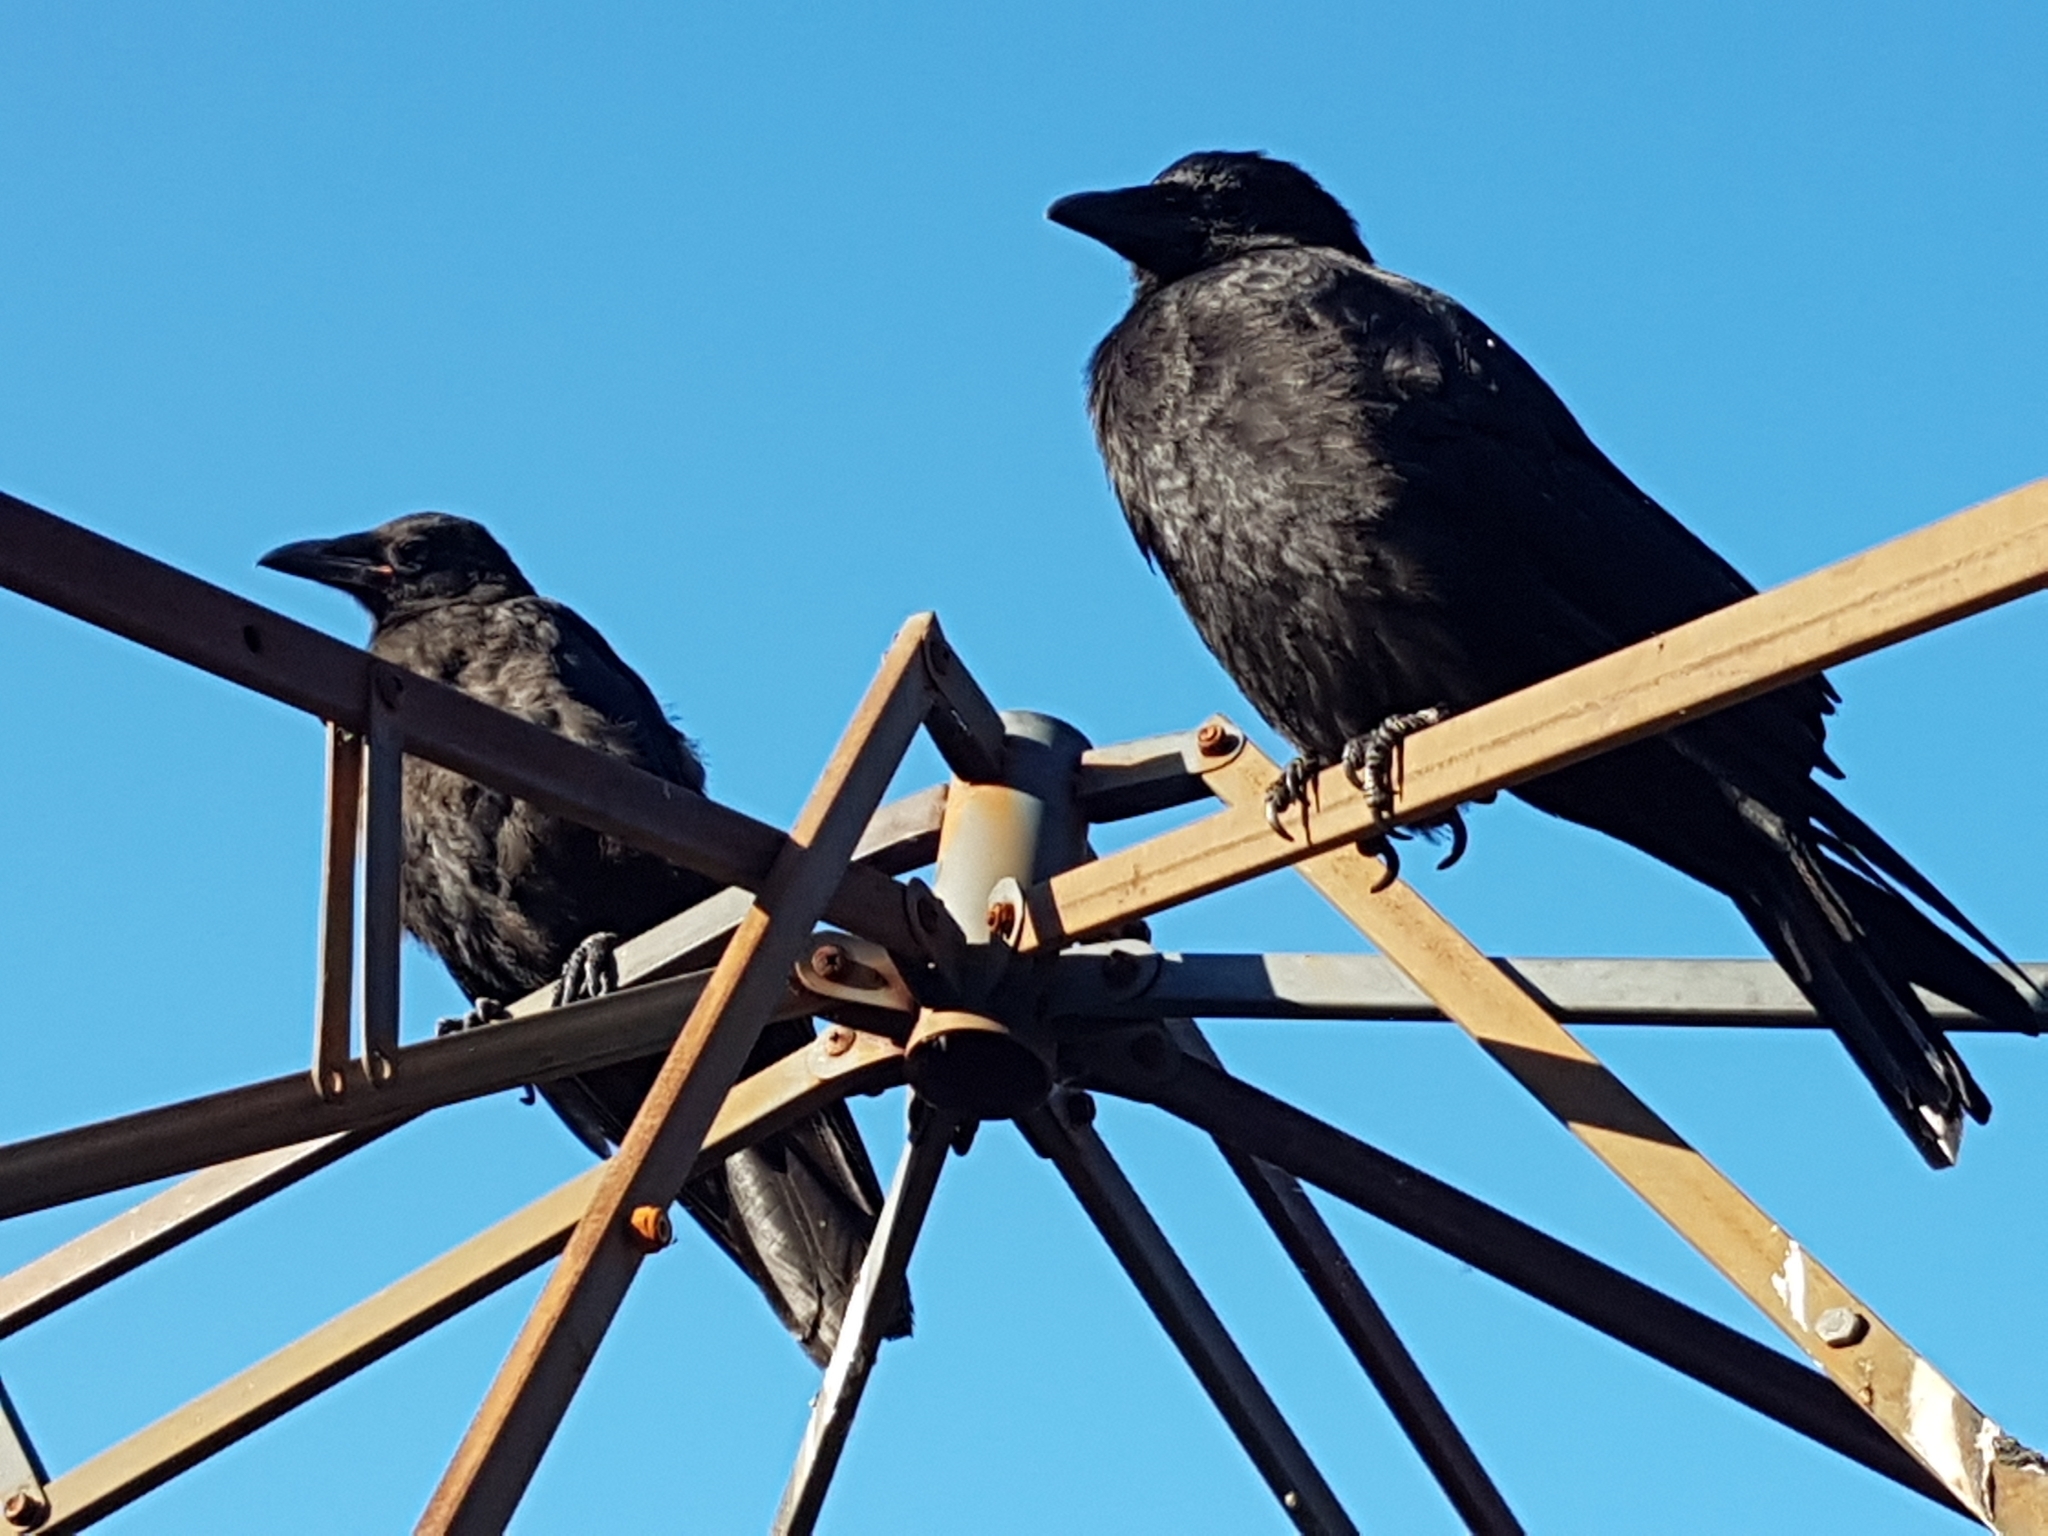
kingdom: Animalia
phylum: Chordata
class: Aves
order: Passeriformes
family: Corvidae
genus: Corvus
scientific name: Corvus brachyrhynchos
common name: American crow
